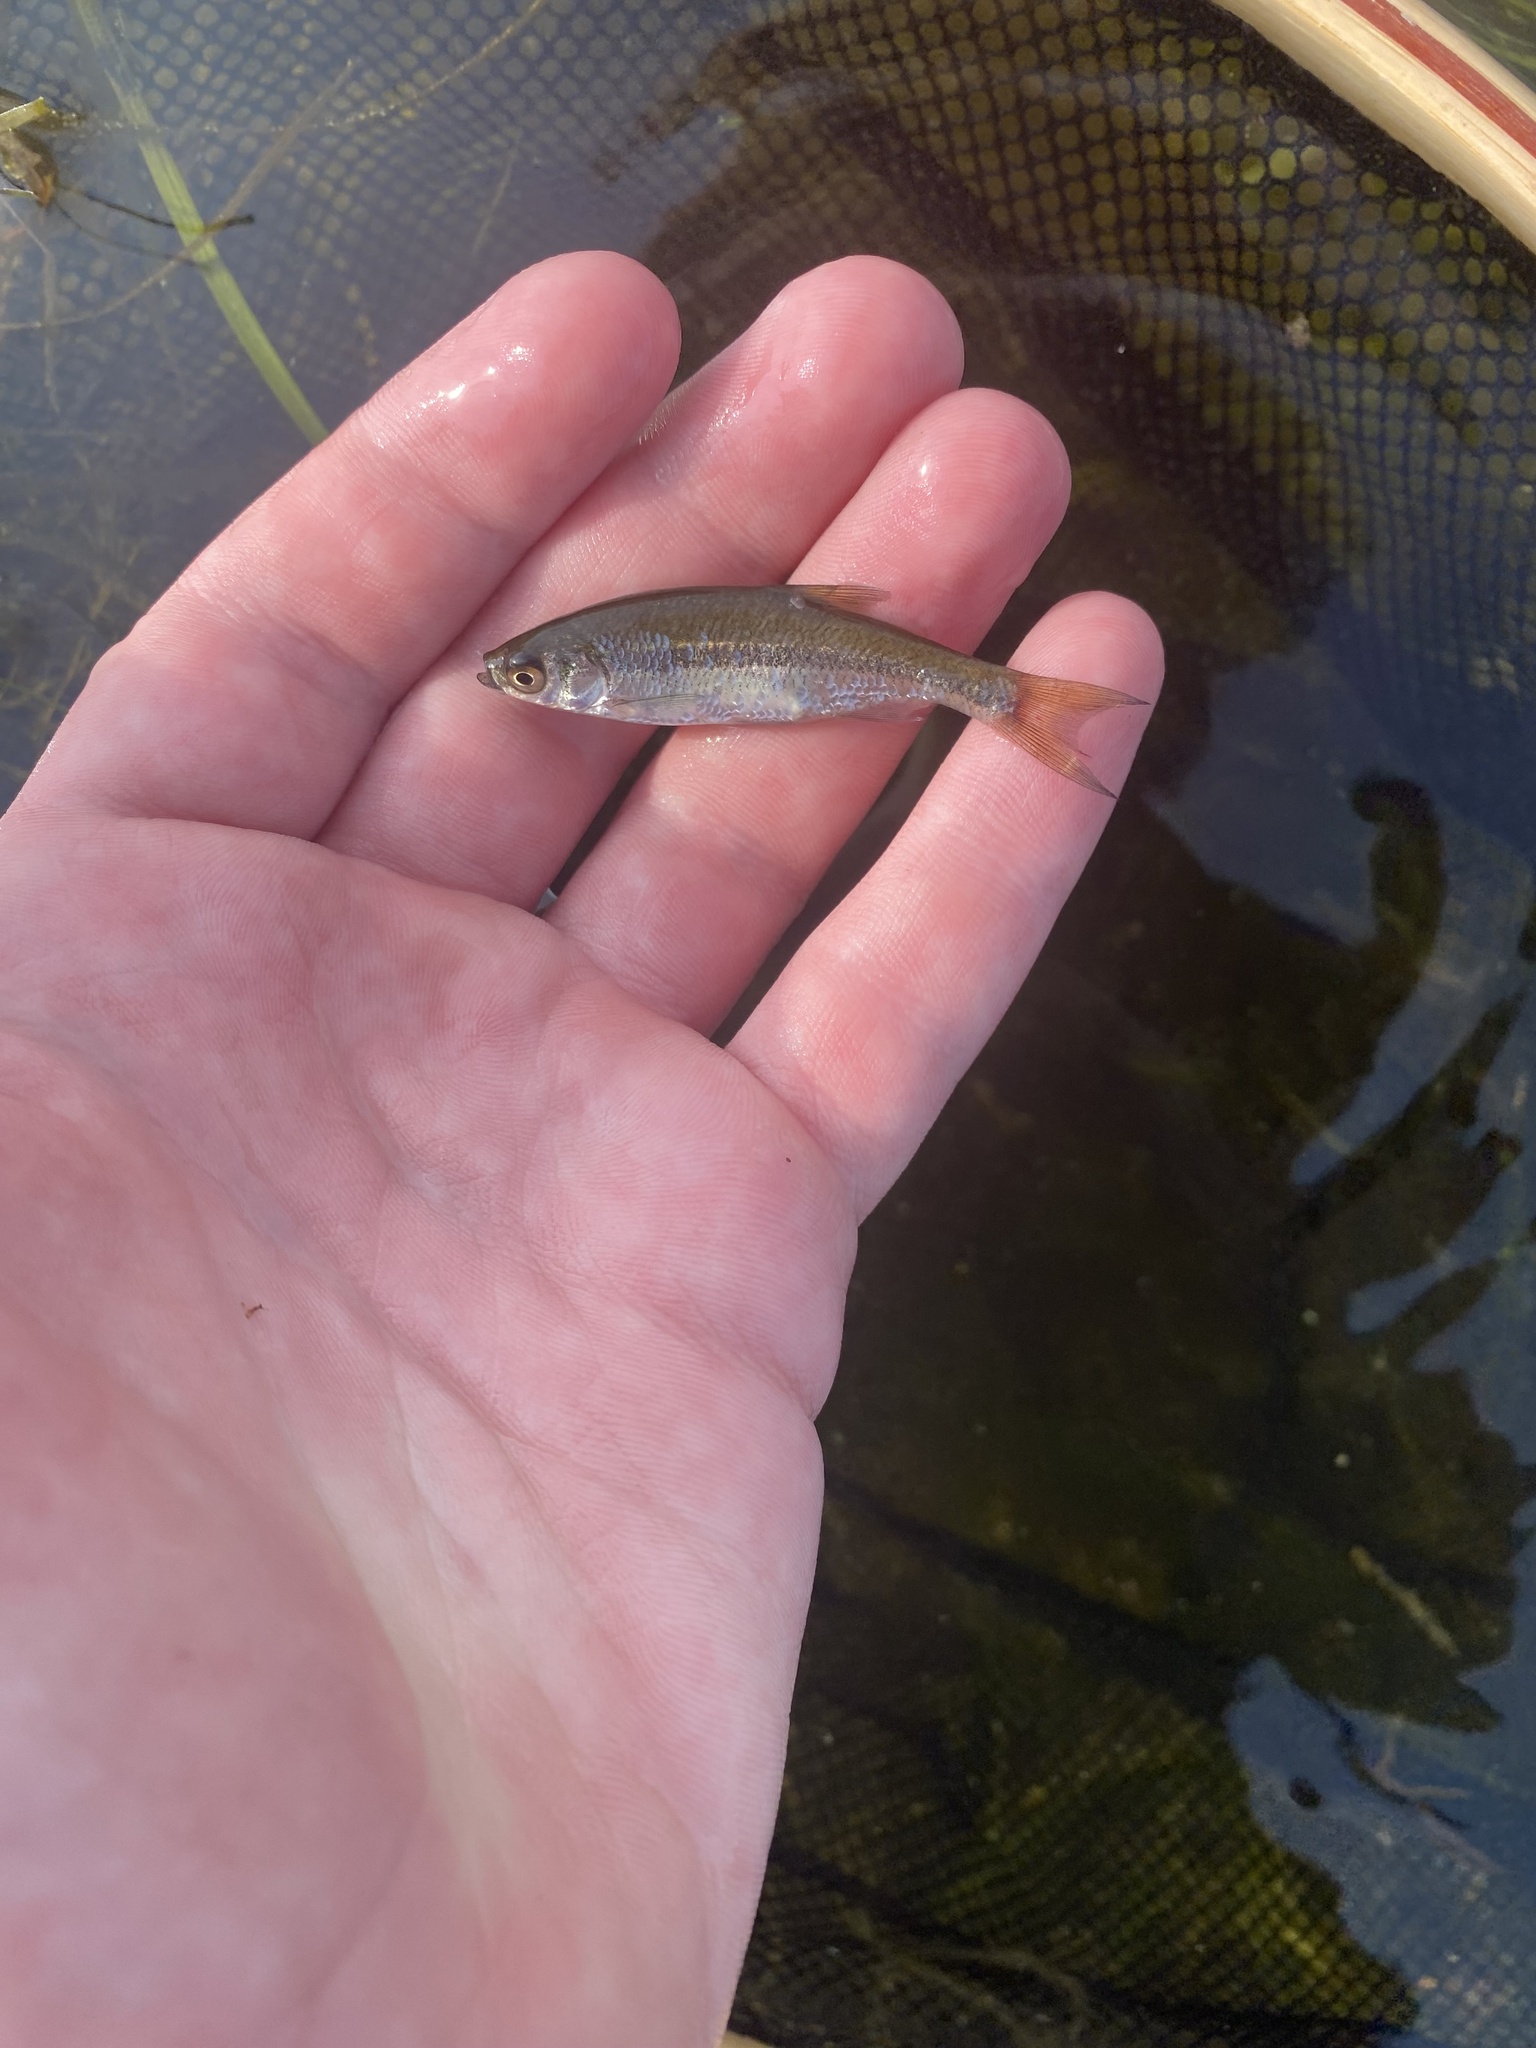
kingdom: Animalia
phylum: Chordata
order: Cypriniformes
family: Cyprinidae
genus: Notemigonus
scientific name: Notemigonus crysoleucas
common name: Golden shiner
